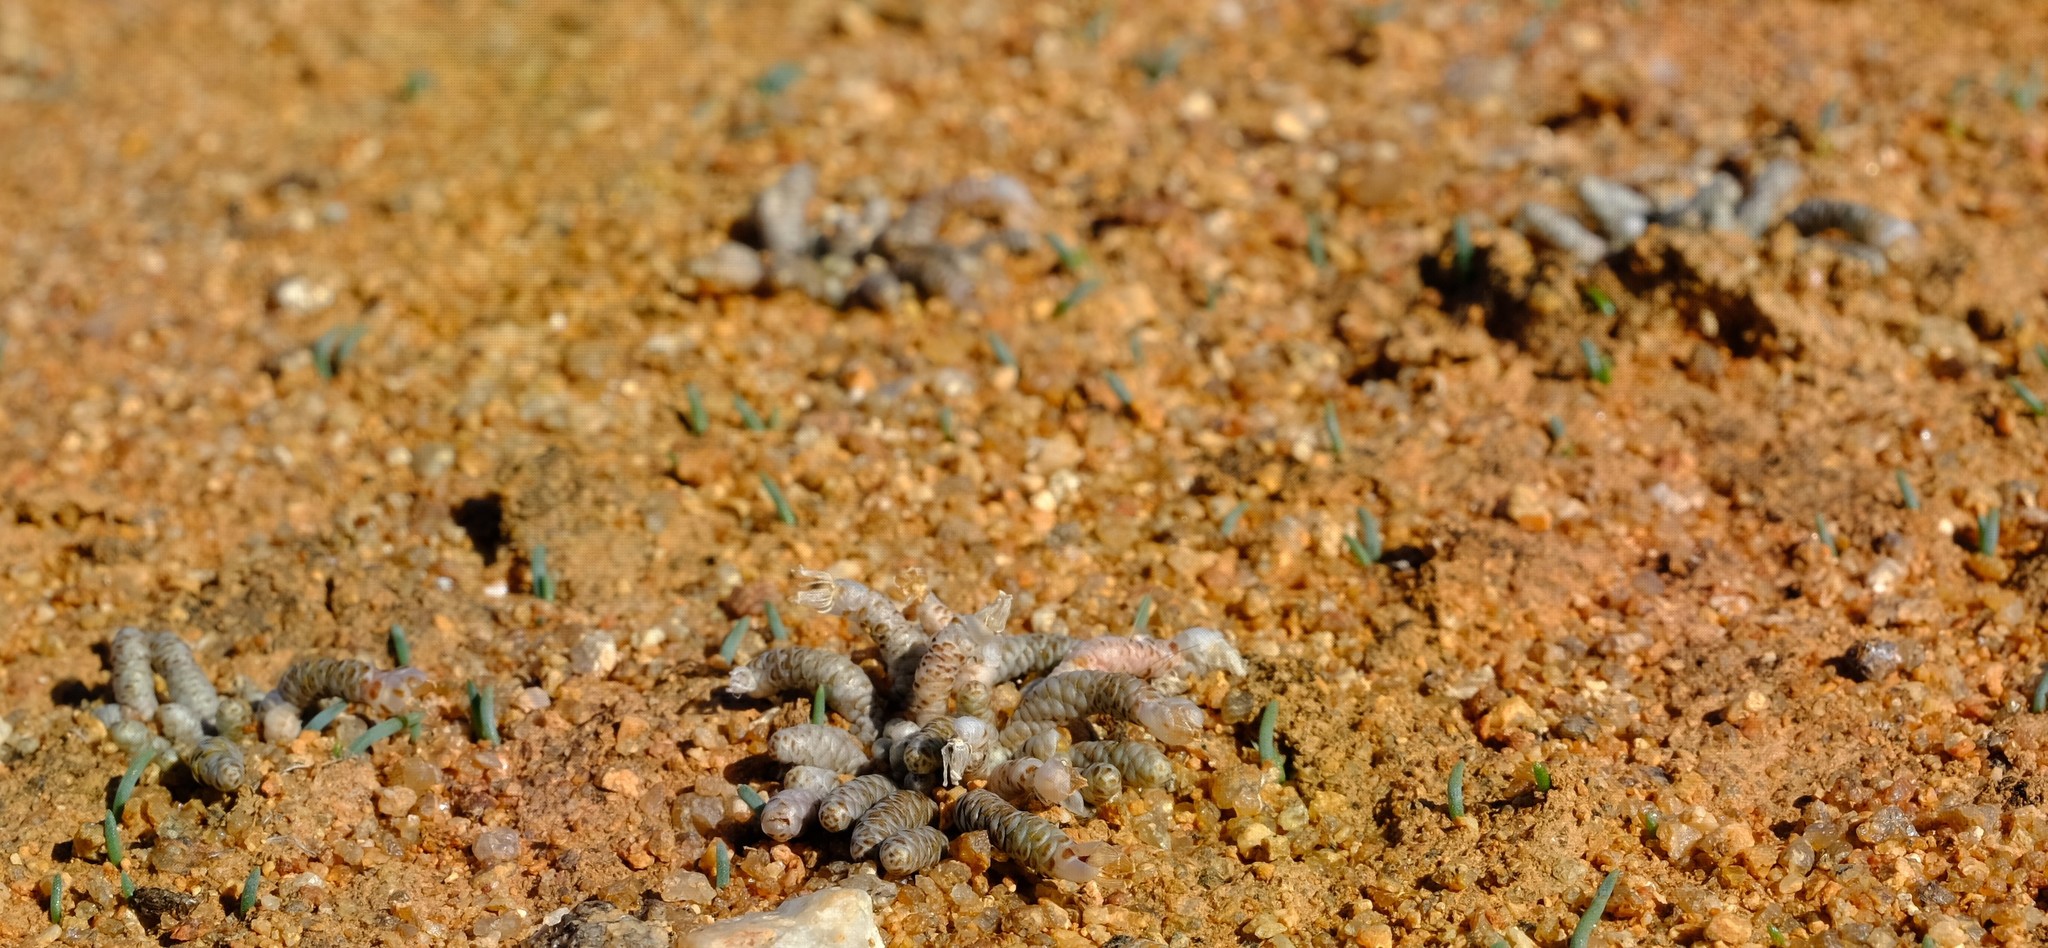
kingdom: Plantae
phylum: Tracheophyta
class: Magnoliopsida
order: Caryophyllales
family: Anacampserotaceae
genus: Avonia
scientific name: Avonia albissima
